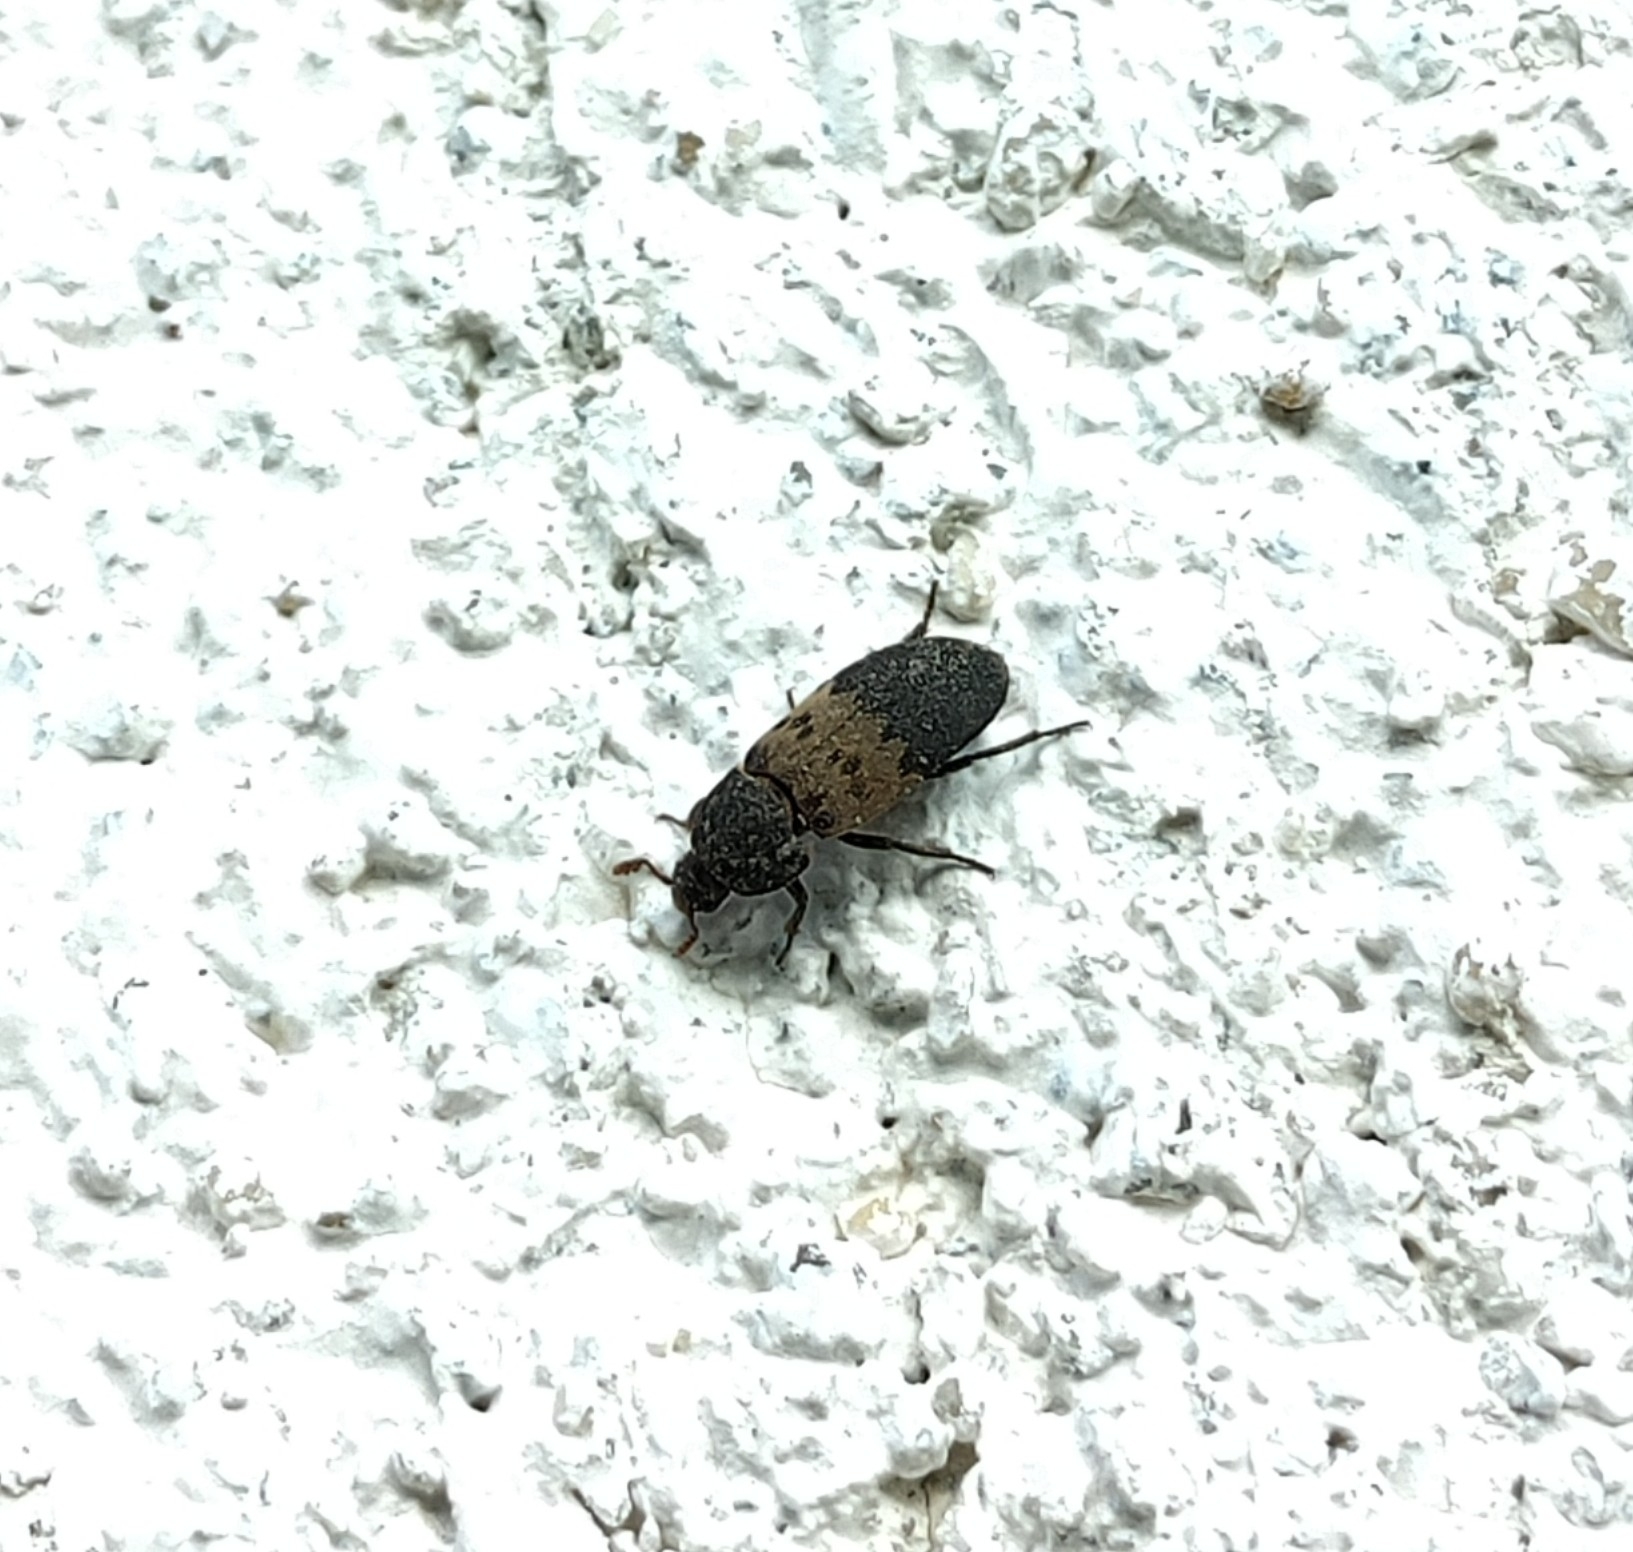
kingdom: Animalia
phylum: Arthropoda
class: Insecta
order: Coleoptera
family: Dermestidae
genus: Dermestes
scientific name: Dermestes lardarius
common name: Larder beetle
